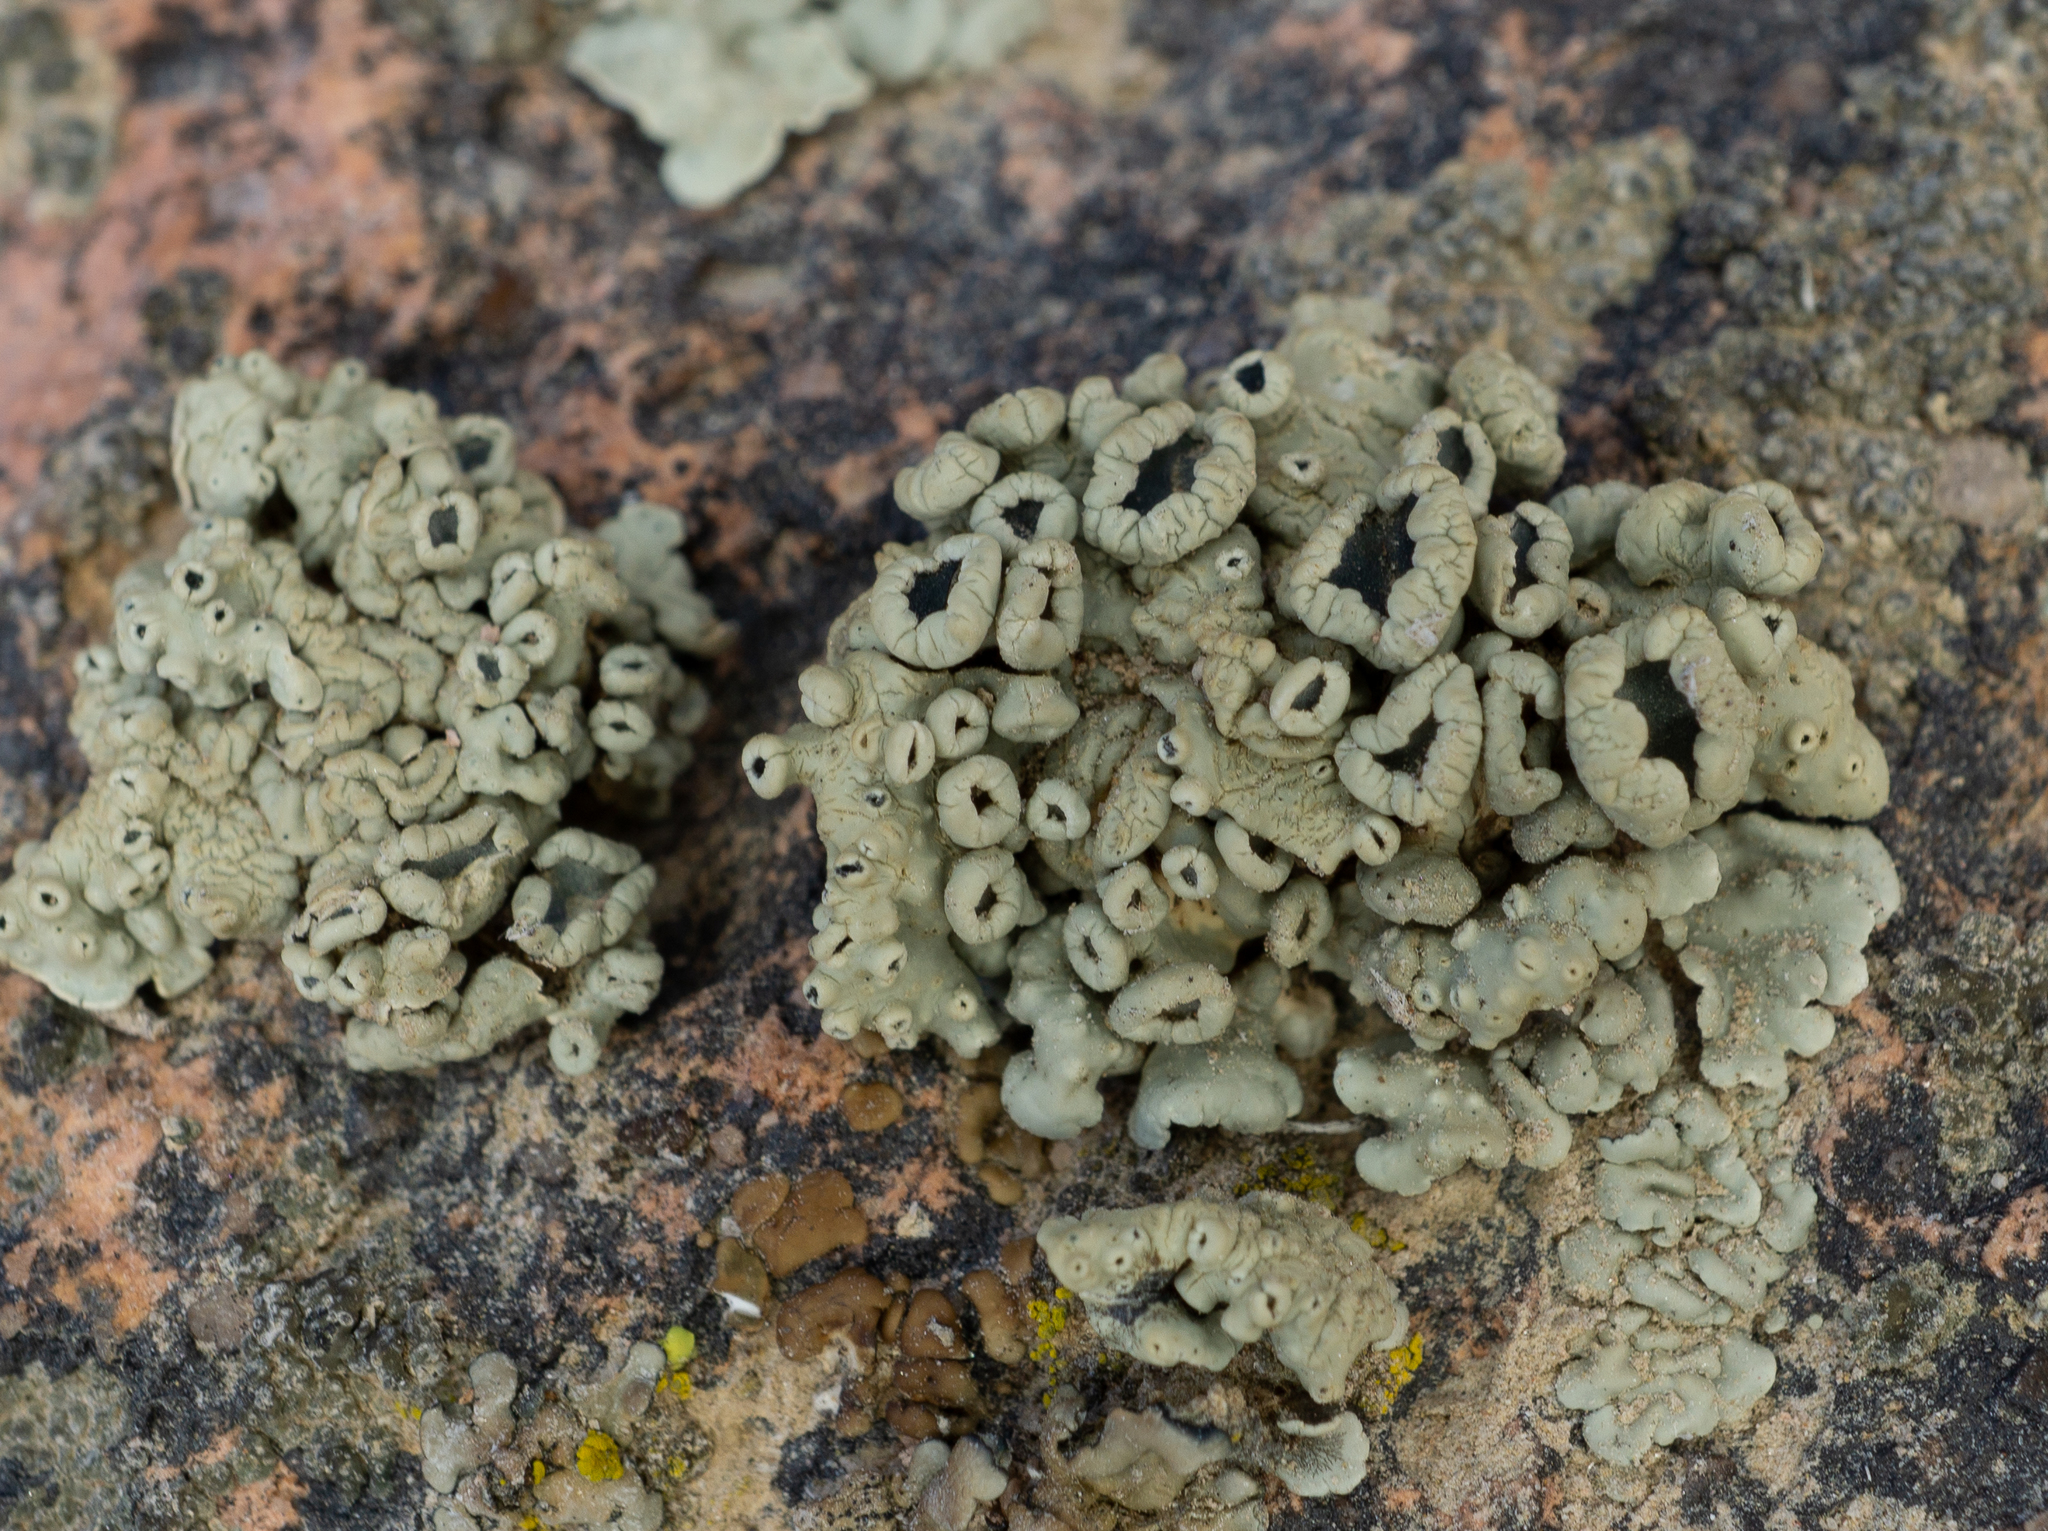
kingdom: Fungi
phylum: Ascomycota
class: Lecanoromycetes
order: Lecanorales
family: Lecanoraceae
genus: Rhizoplaca
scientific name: Rhizoplaca melanophthalma
